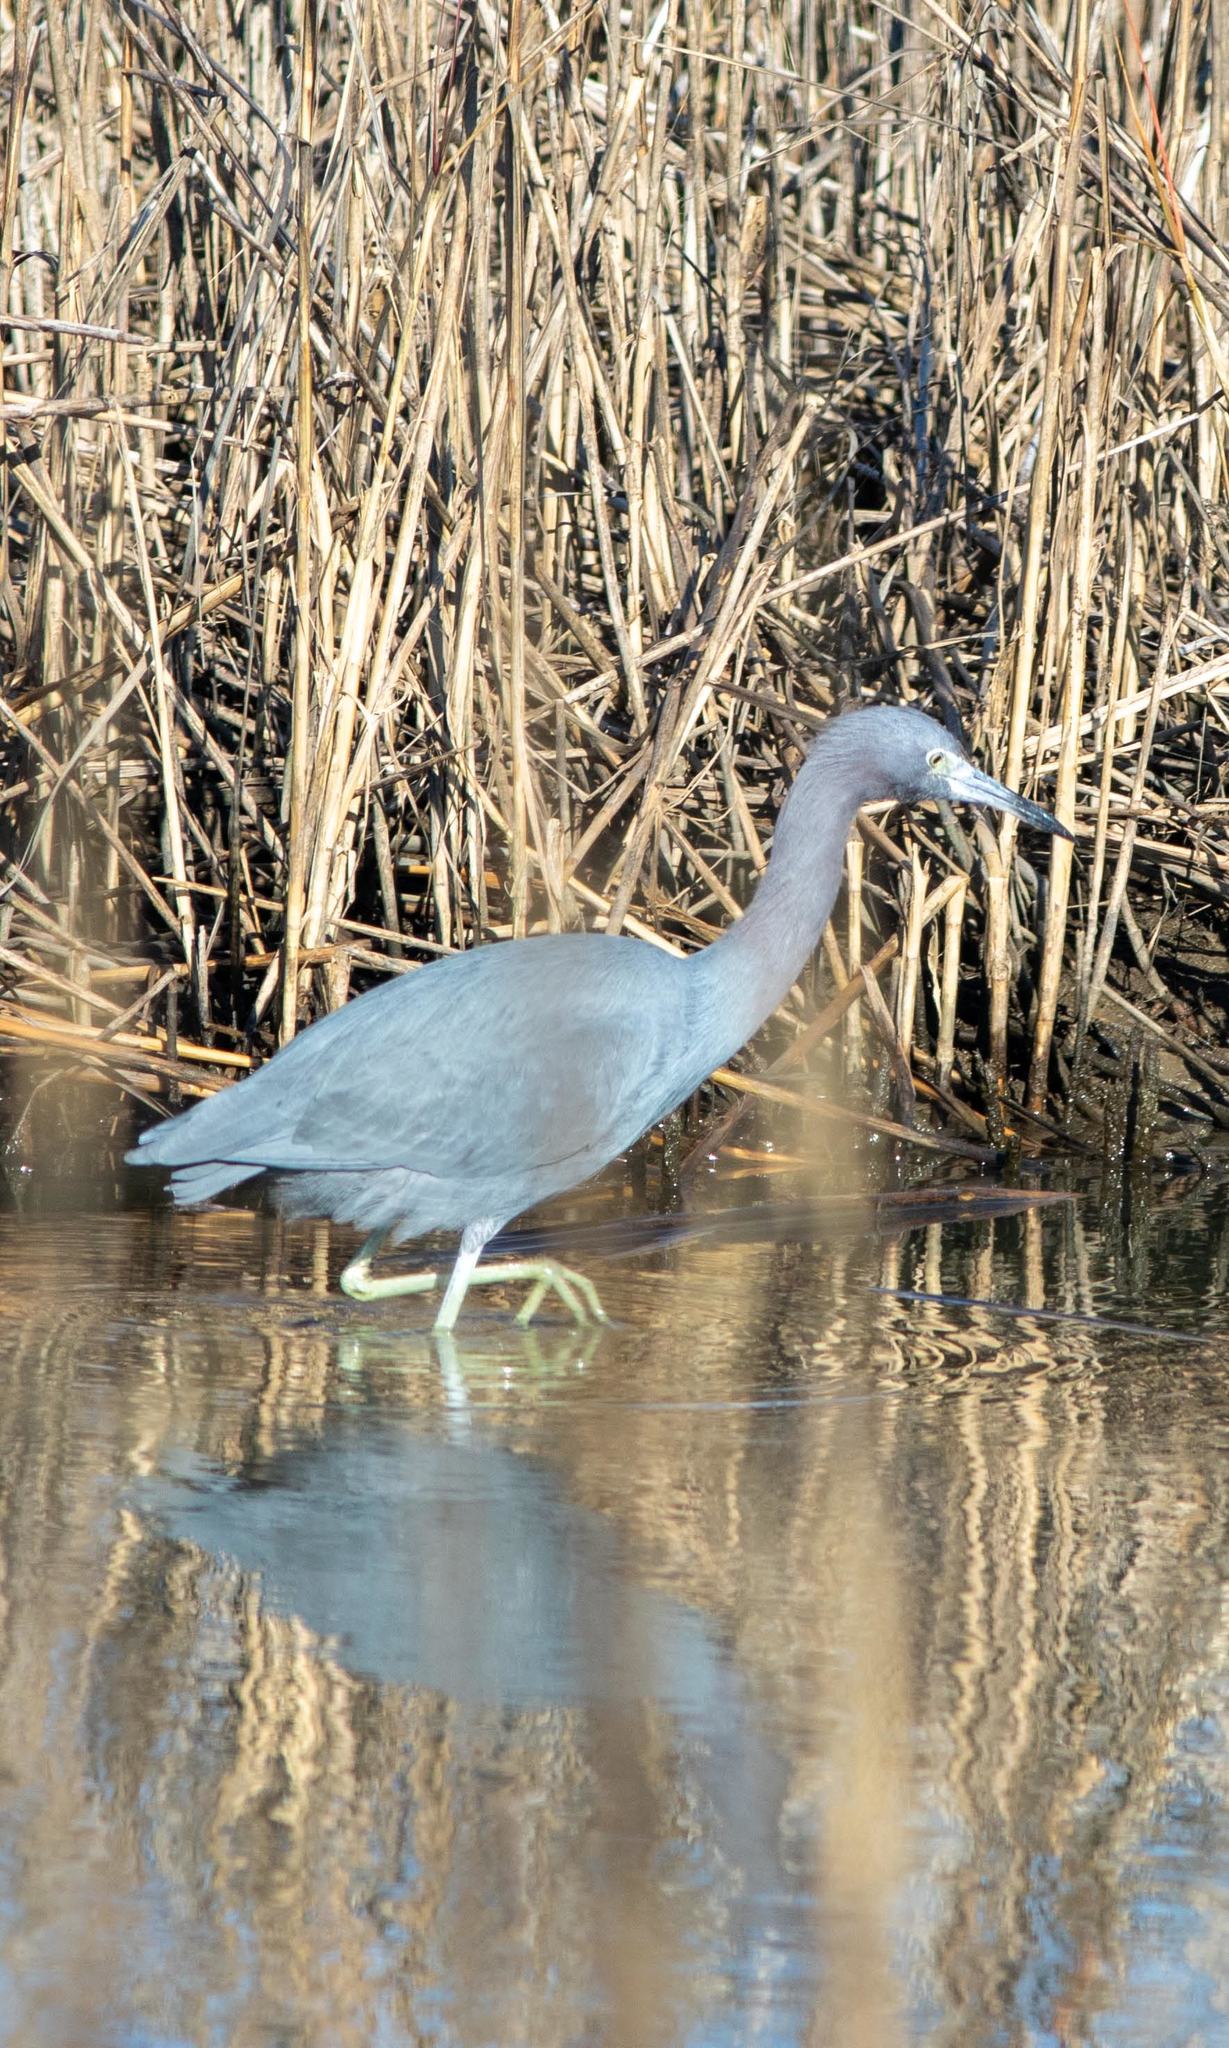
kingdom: Animalia
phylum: Chordata
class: Aves
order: Pelecaniformes
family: Ardeidae
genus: Egretta
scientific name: Egretta caerulea
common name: Little blue heron
